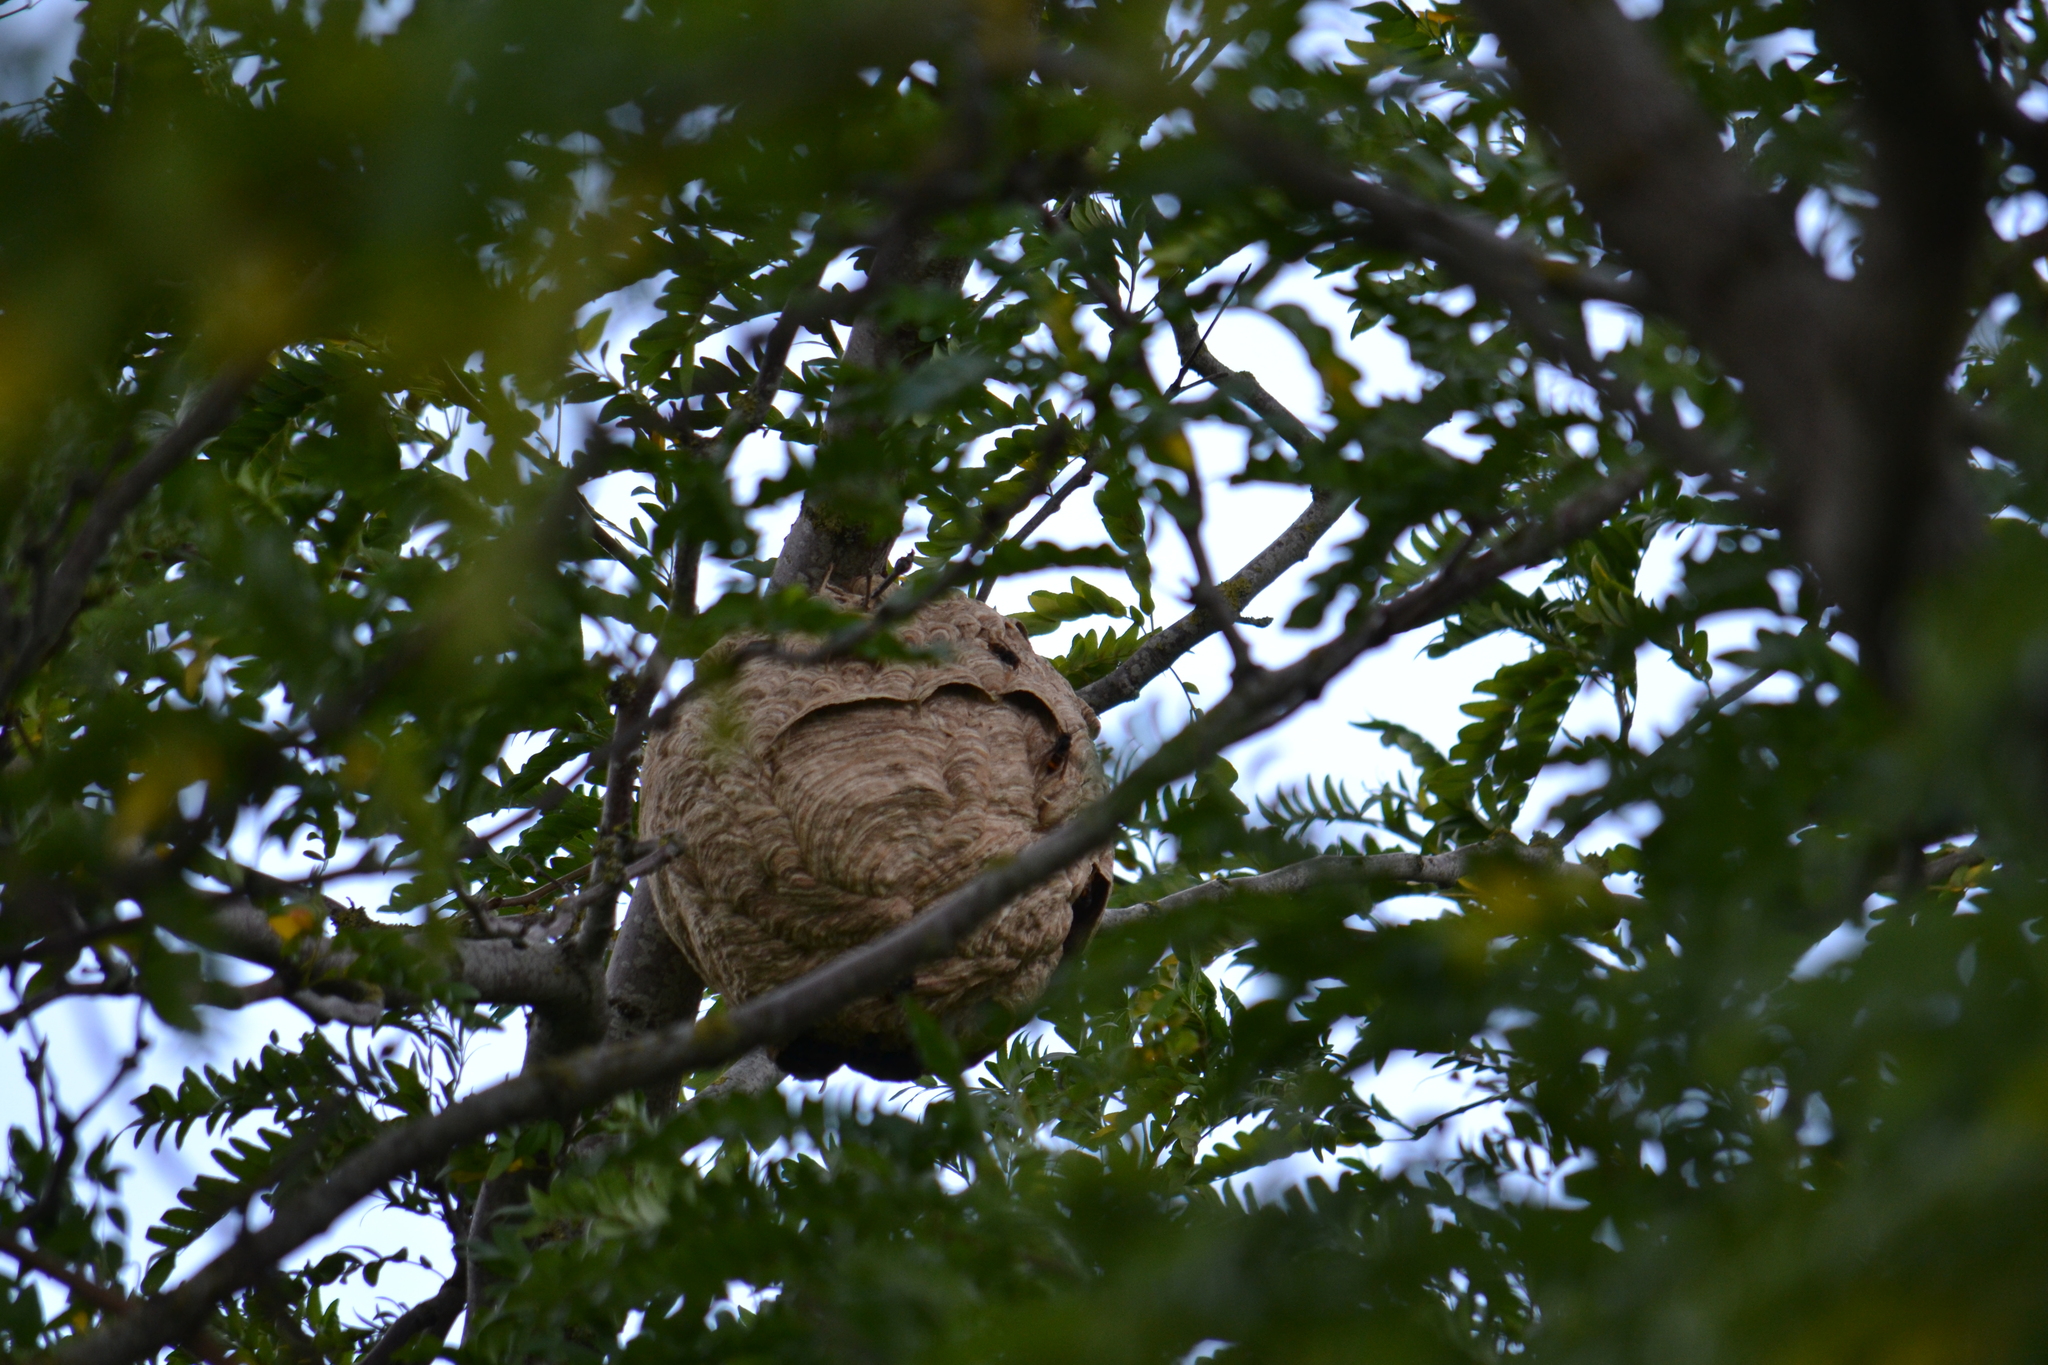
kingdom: Animalia
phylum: Arthropoda
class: Insecta
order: Hymenoptera
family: Vespidae
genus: Vespa
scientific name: Vespa velutina
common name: Asian hornet
